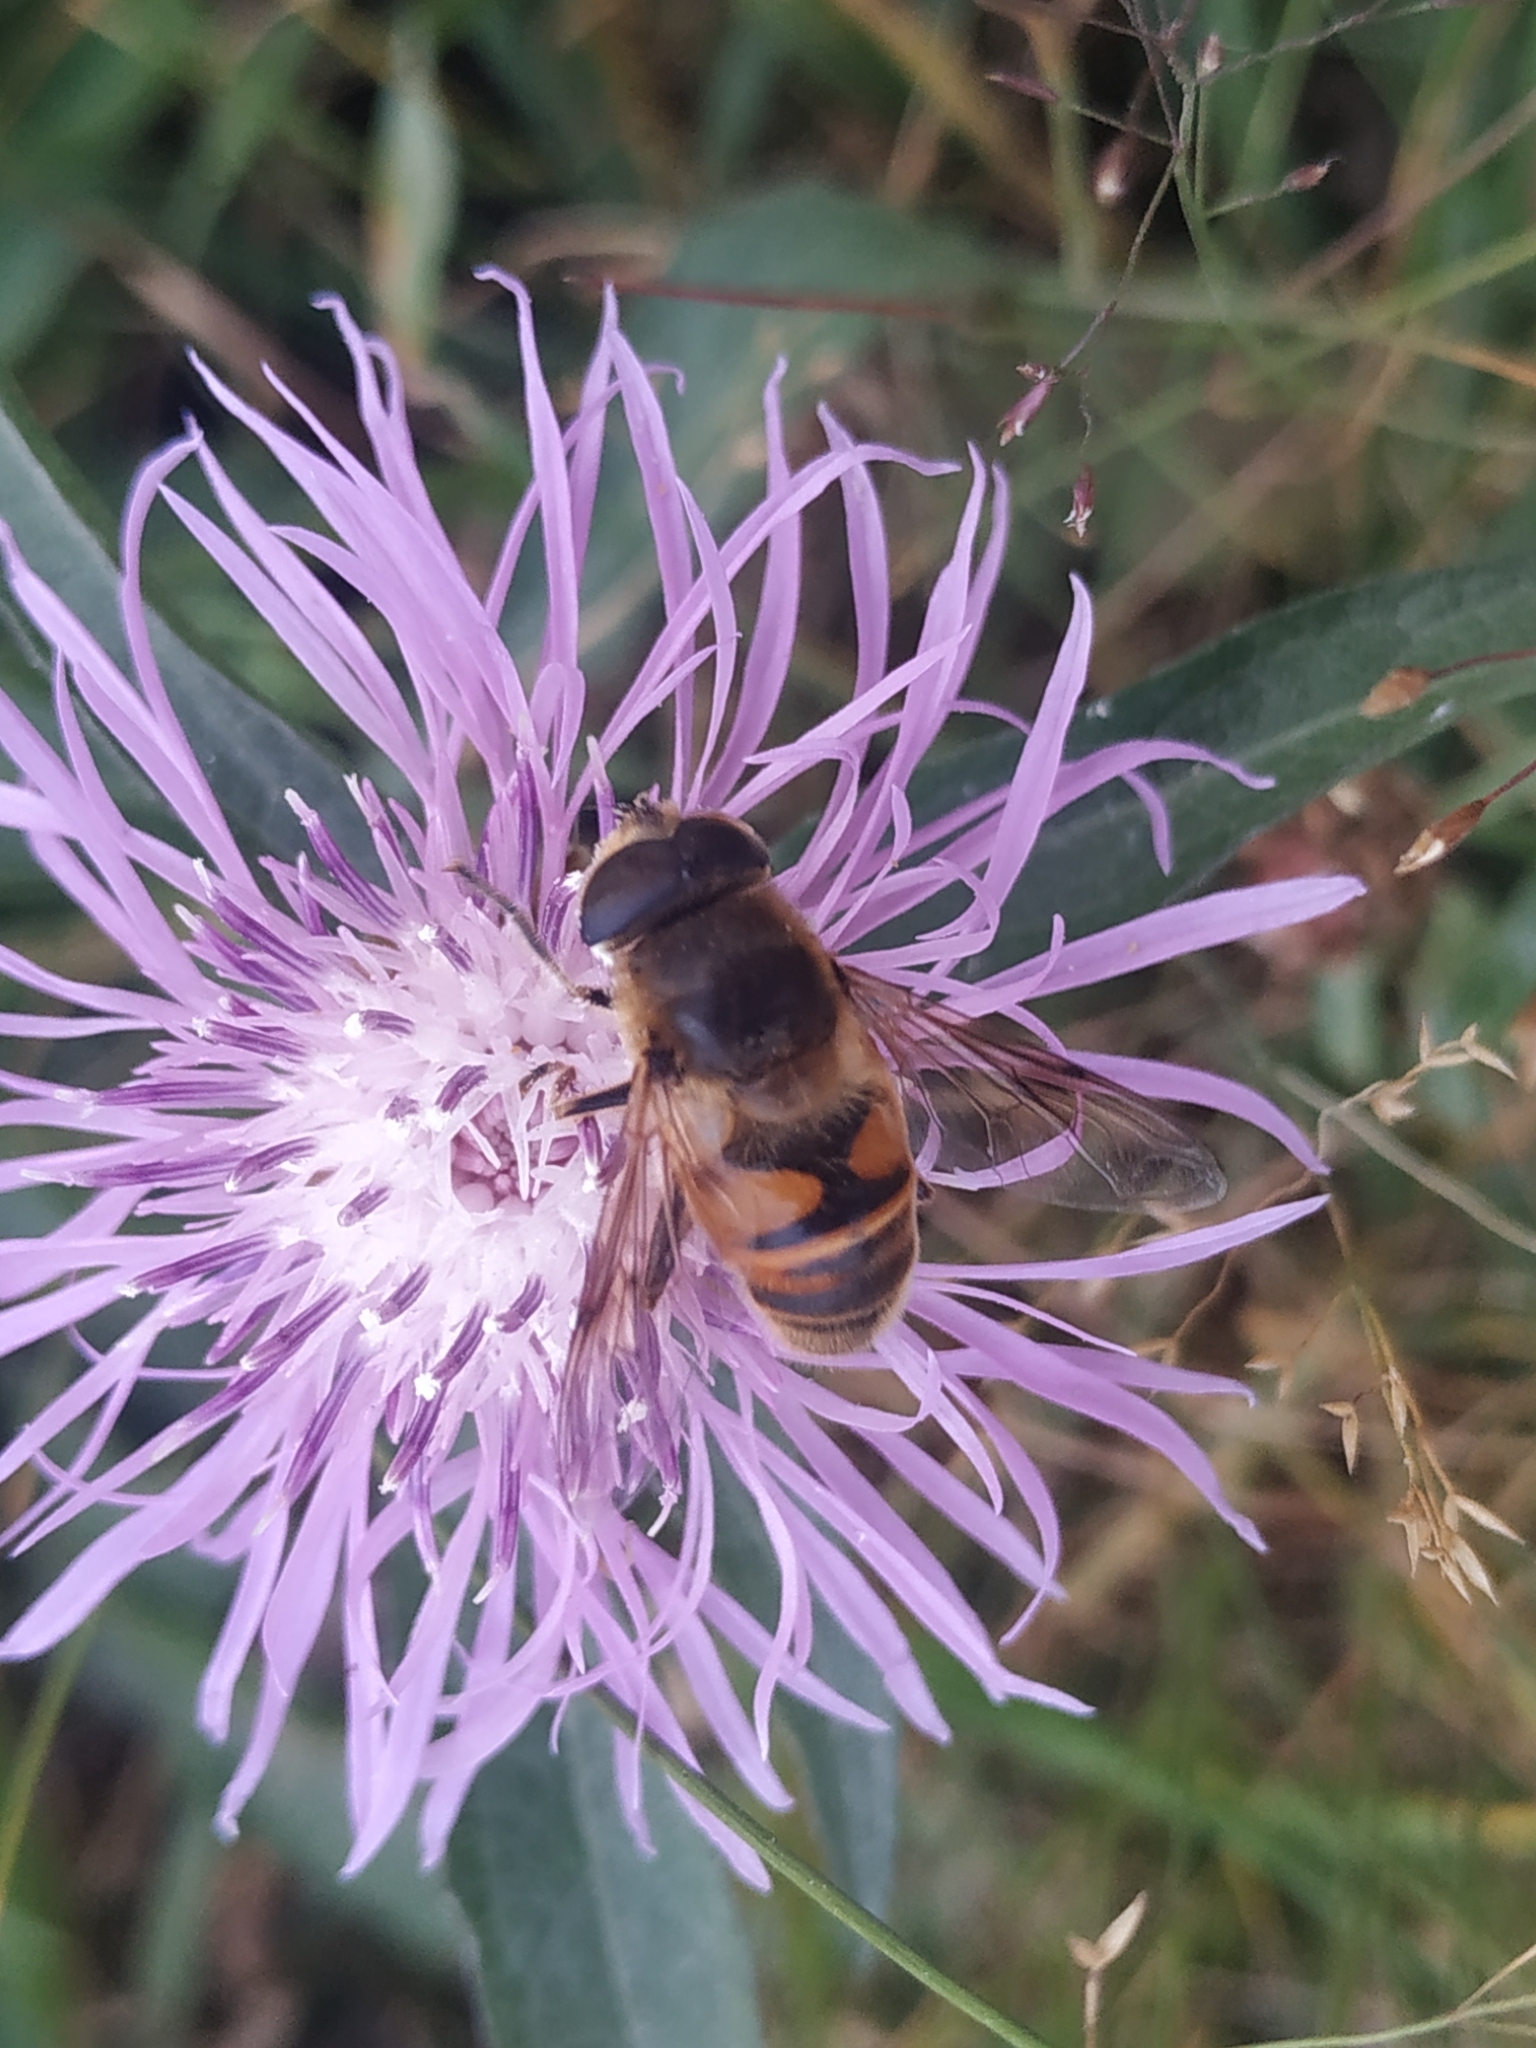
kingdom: Animalia
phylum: Arthropoda
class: Insecta
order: Diptera
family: Syrphidae
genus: Eristalis
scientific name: Eristalis tenax
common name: Drone fly
